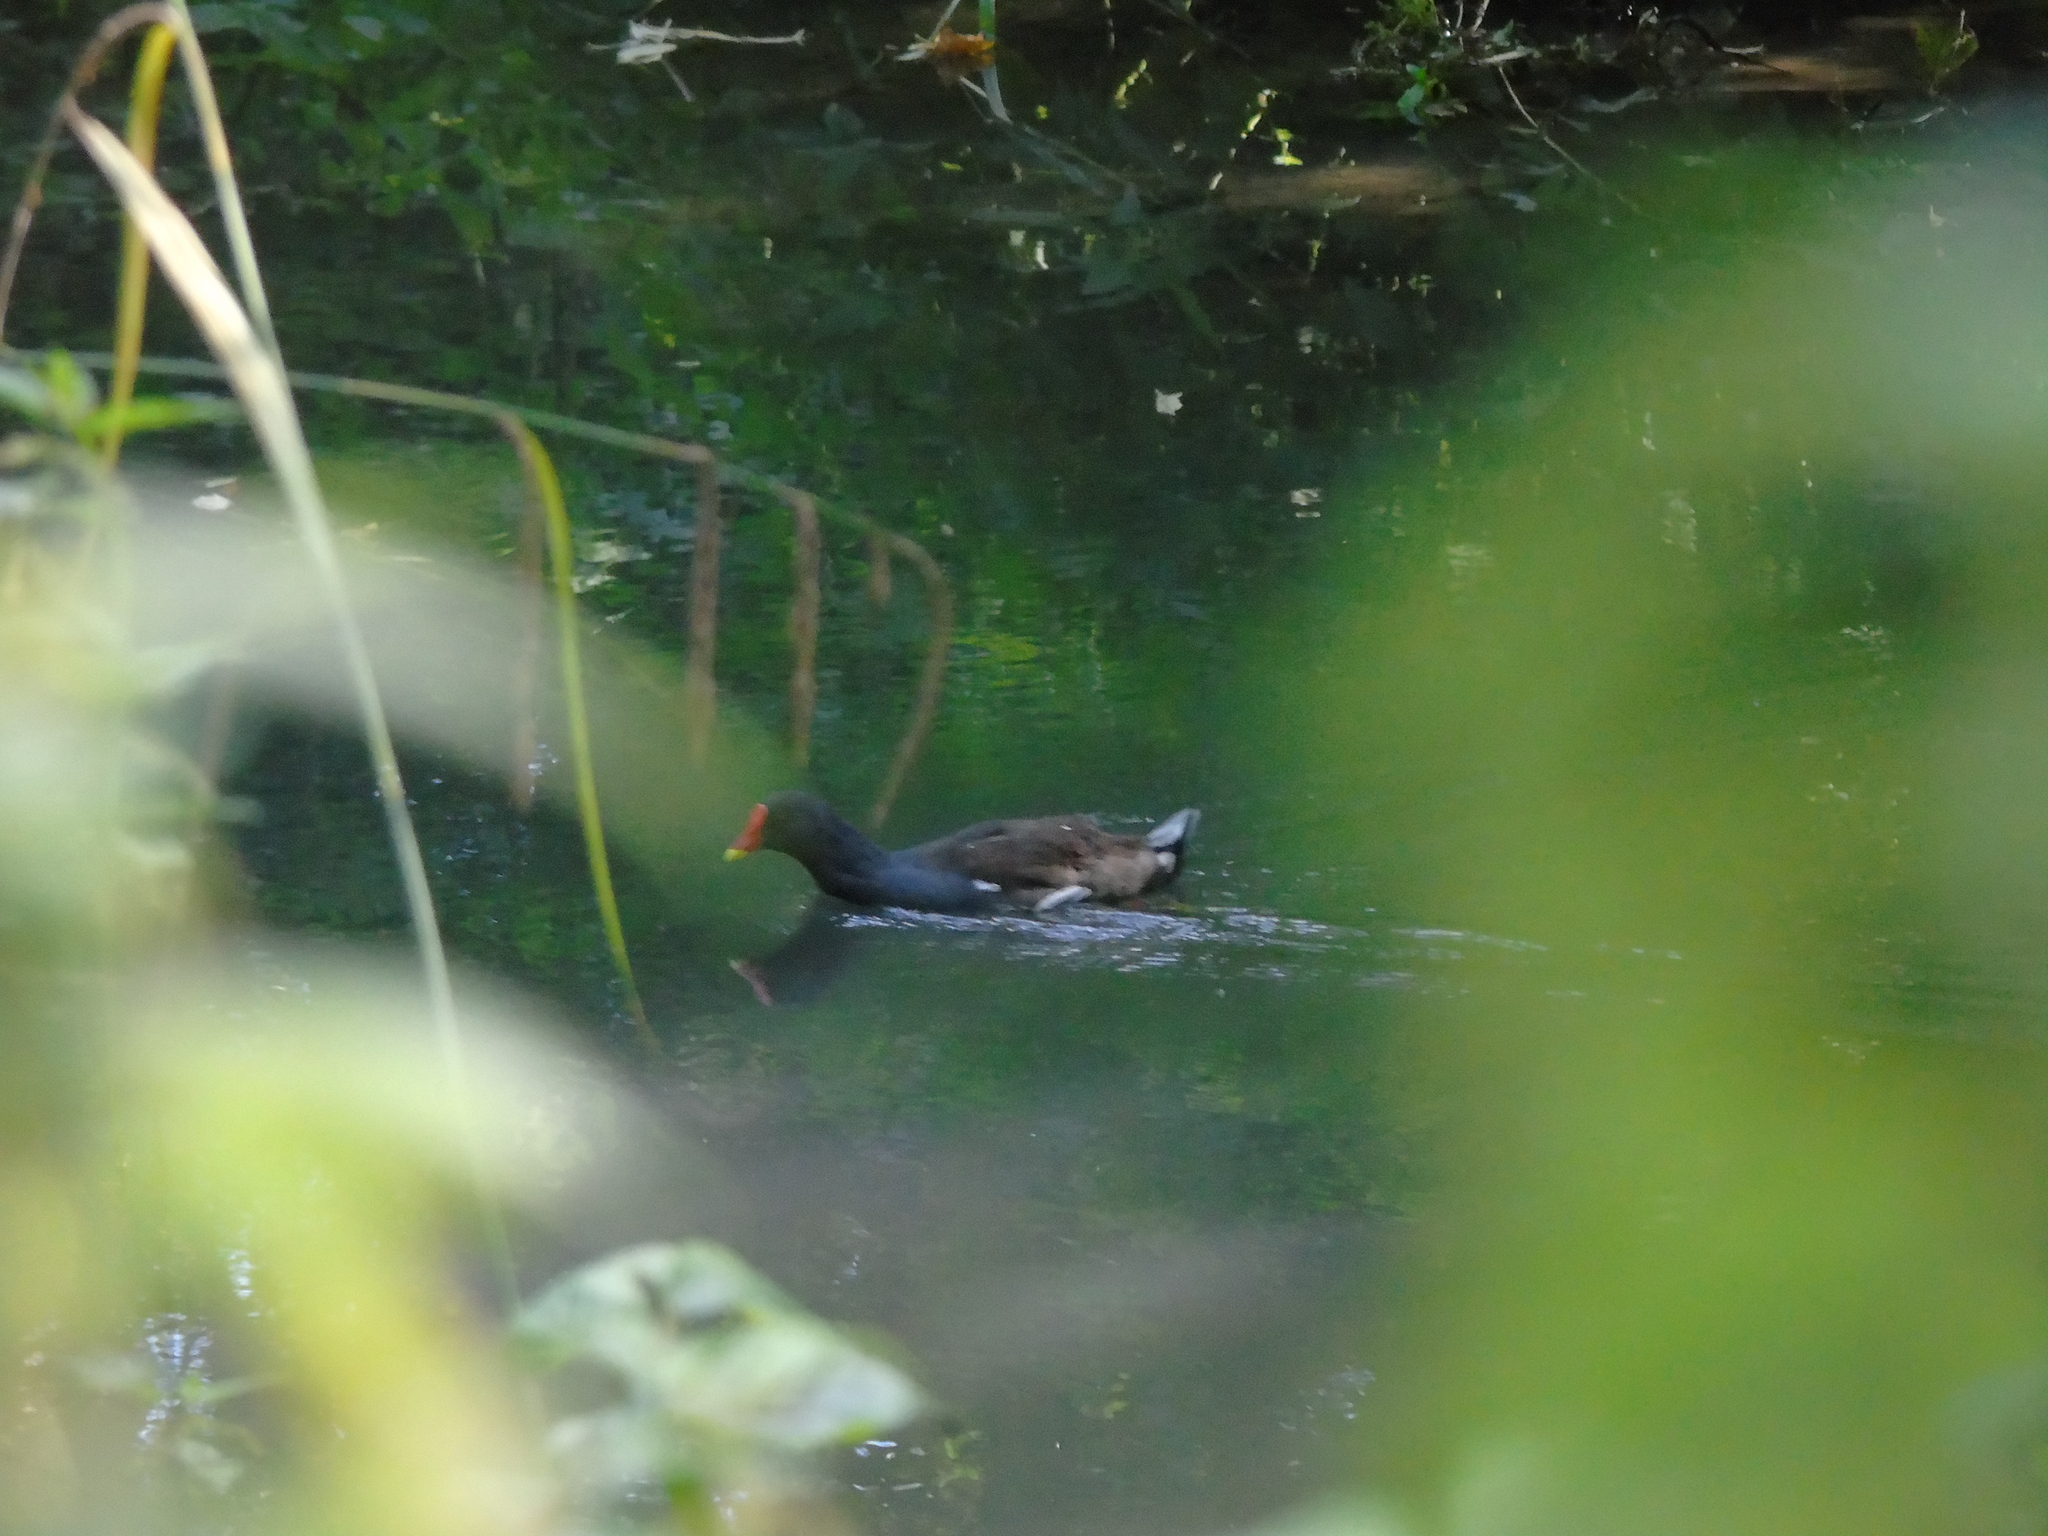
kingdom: Animalia
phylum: Chordata
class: Aves
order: Gruiformes
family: Rallidae
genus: Gallinula
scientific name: Gallinula chloropus
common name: Common moorhen
